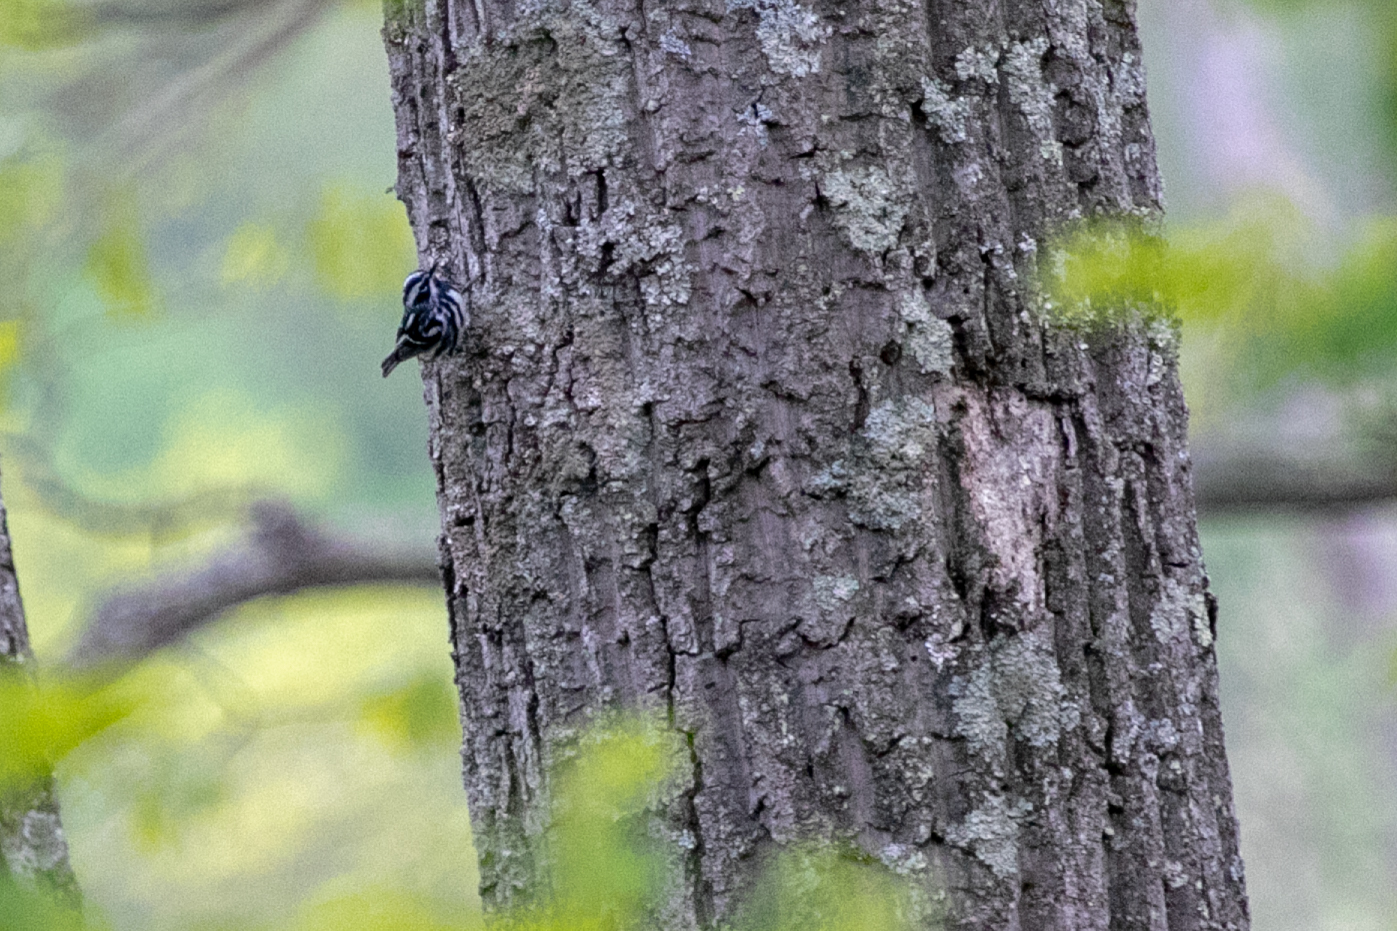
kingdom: Animalia
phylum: Chordata
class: Aves
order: Passeriformes
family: Parulidae
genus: Mniotilta
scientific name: Mniotilta varia
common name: Black-and-white warbler
